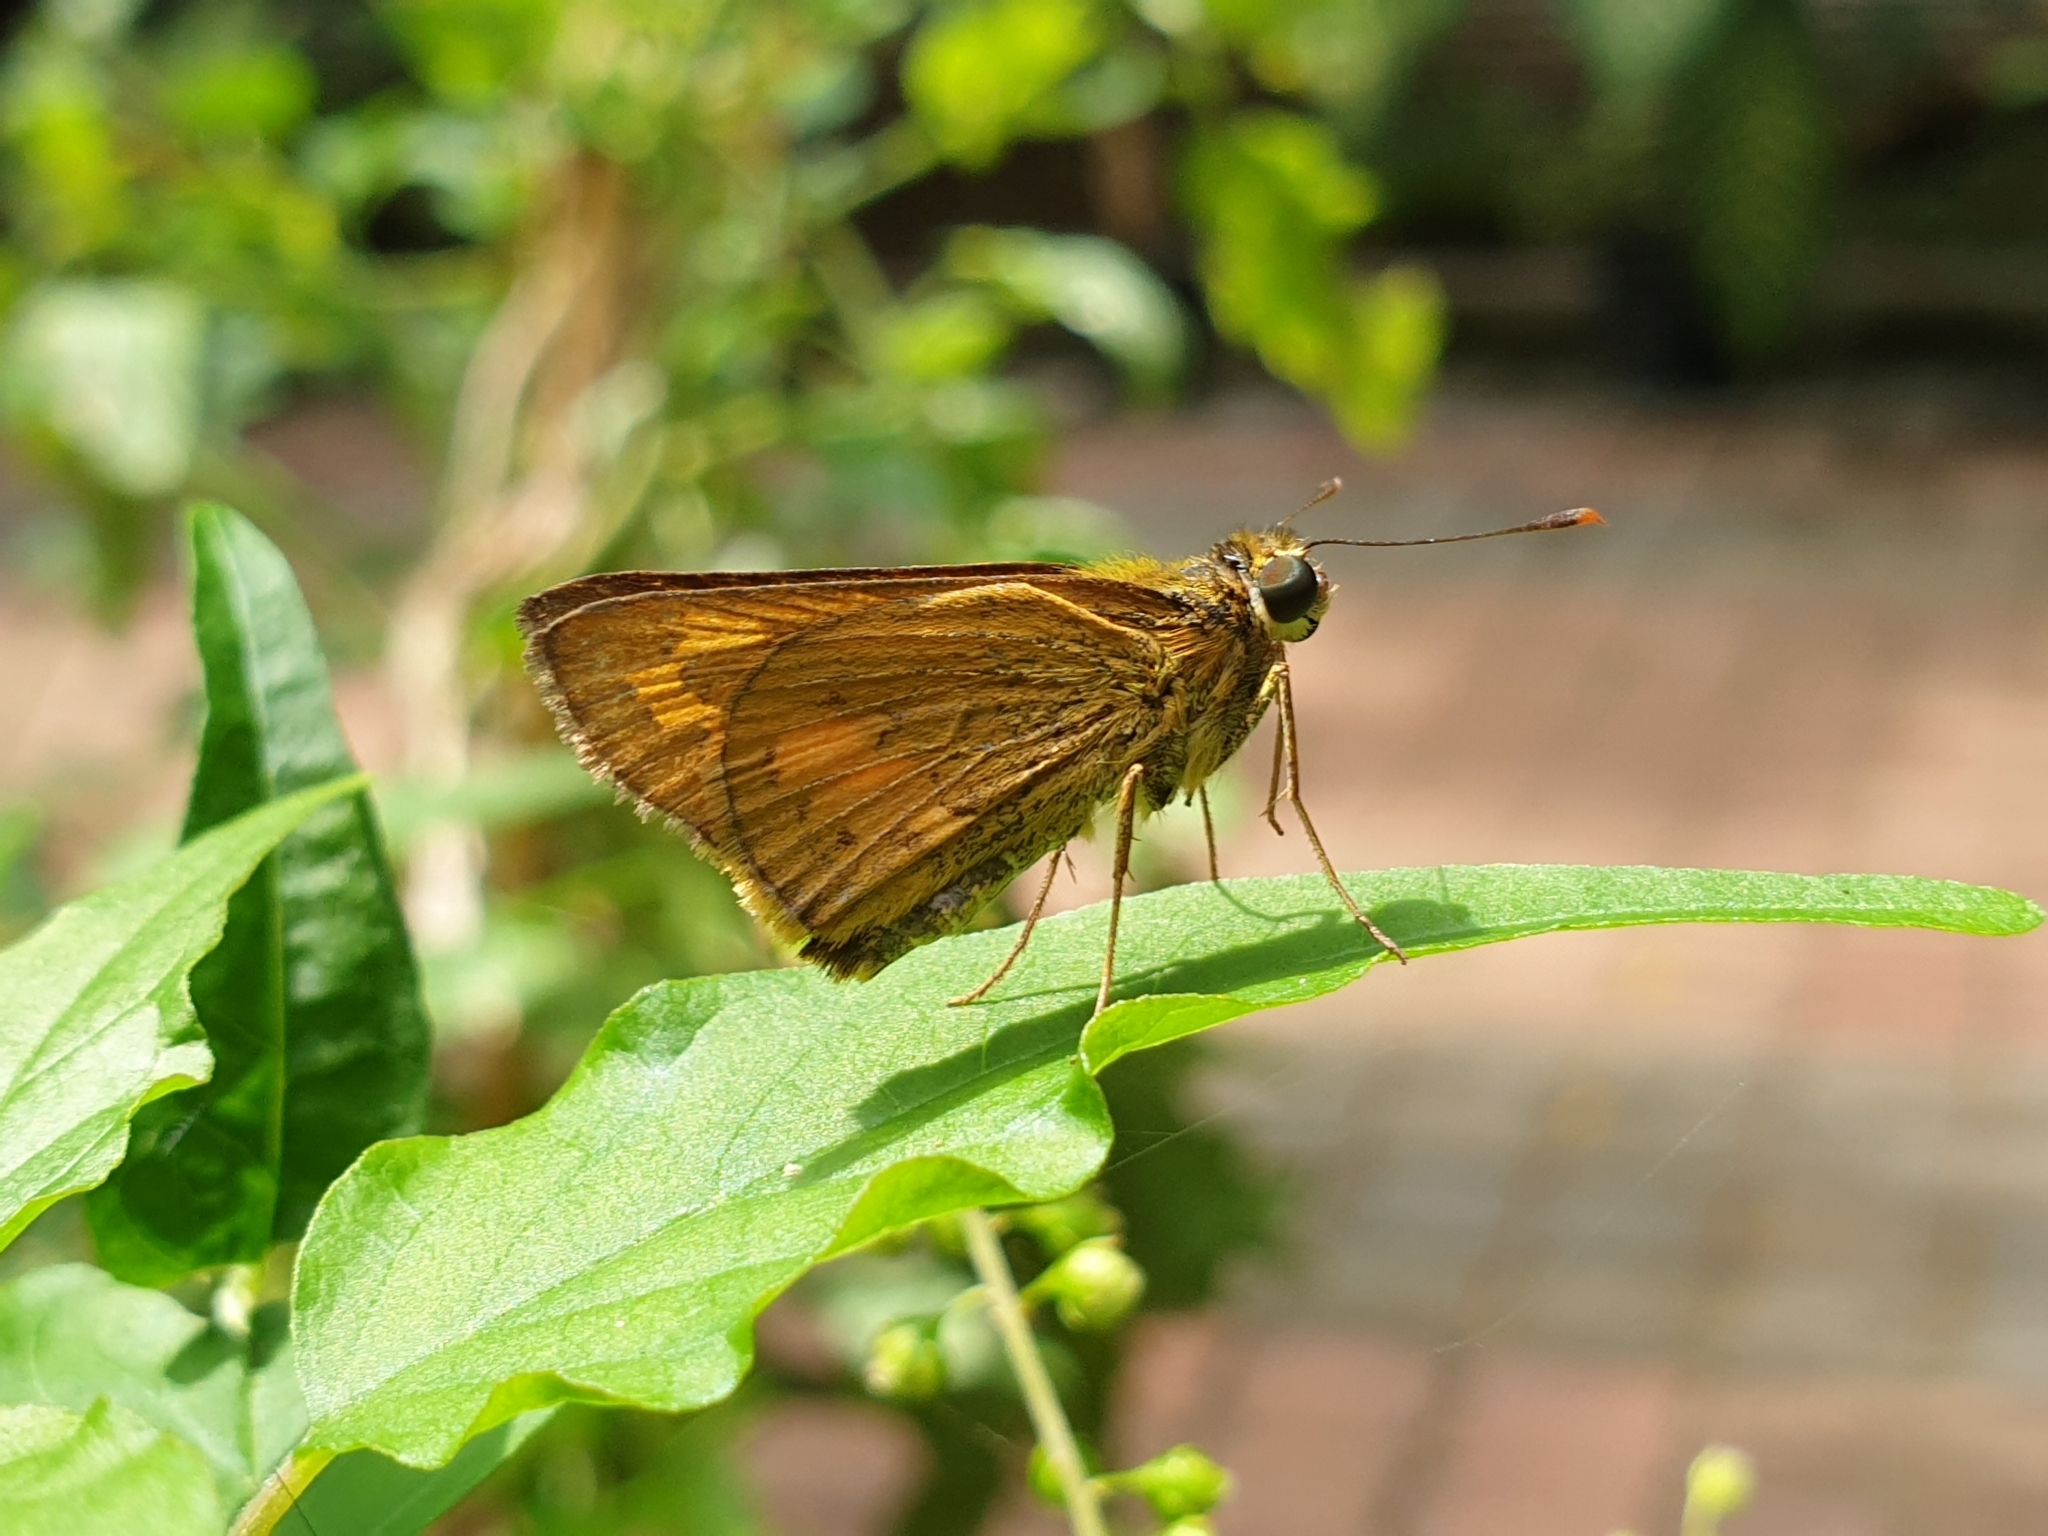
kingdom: Animalia
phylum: Arthropoda
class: Insecta
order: Lepidoptera
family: Hesperiidae
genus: Telicota
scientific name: Telicota bambusae
